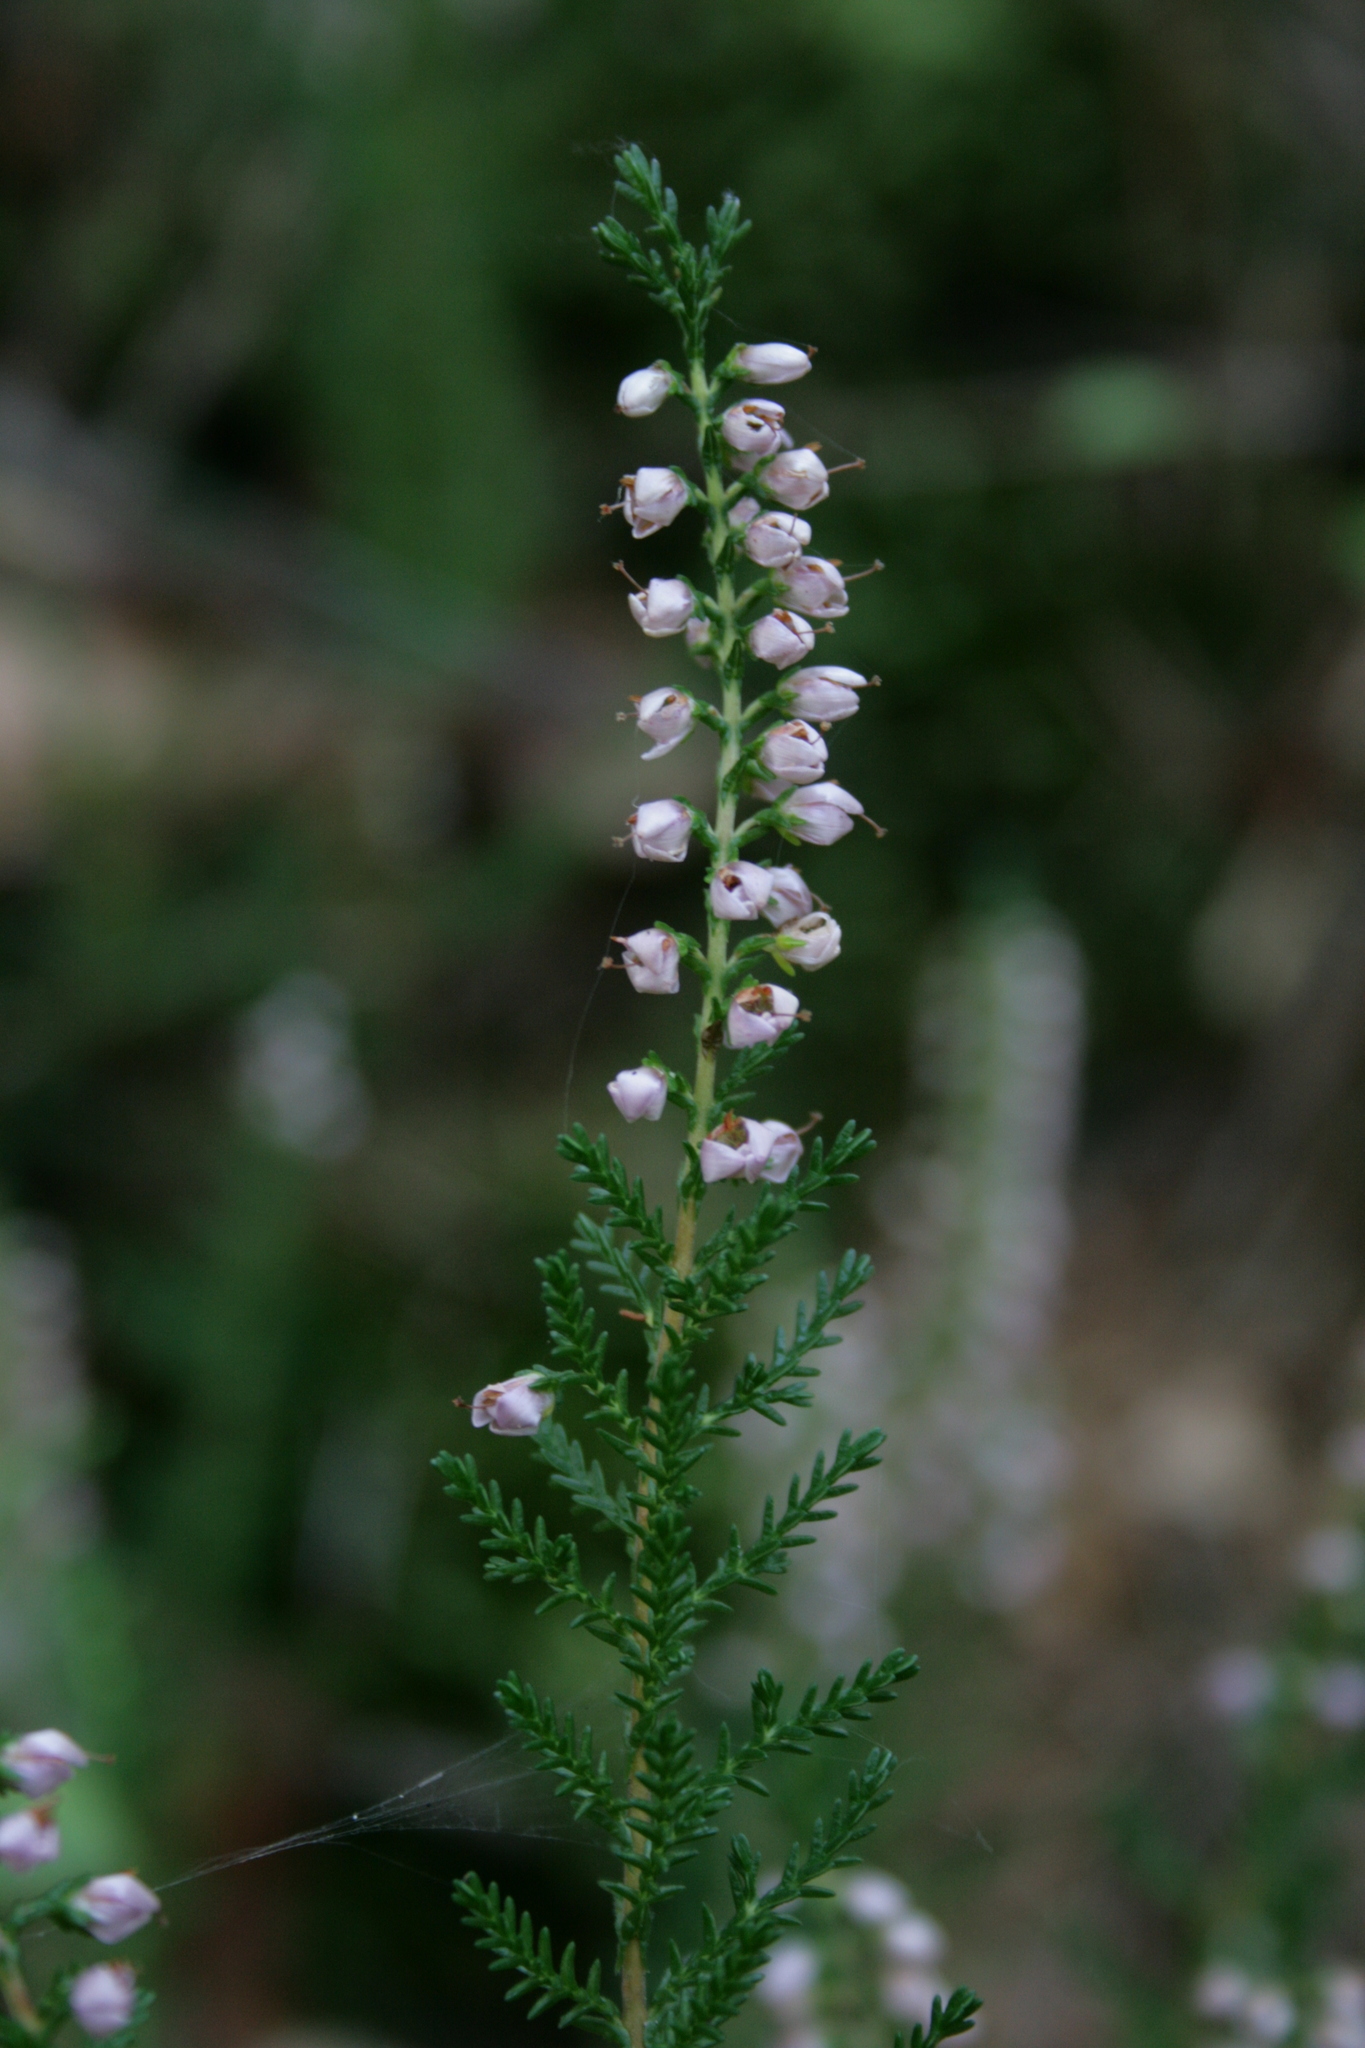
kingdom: Plantae
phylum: Tracheophyta
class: Magnoliopsida
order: Ericales
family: Ericaceae
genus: Calluna
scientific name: Calluna vulgaris
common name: Heather
